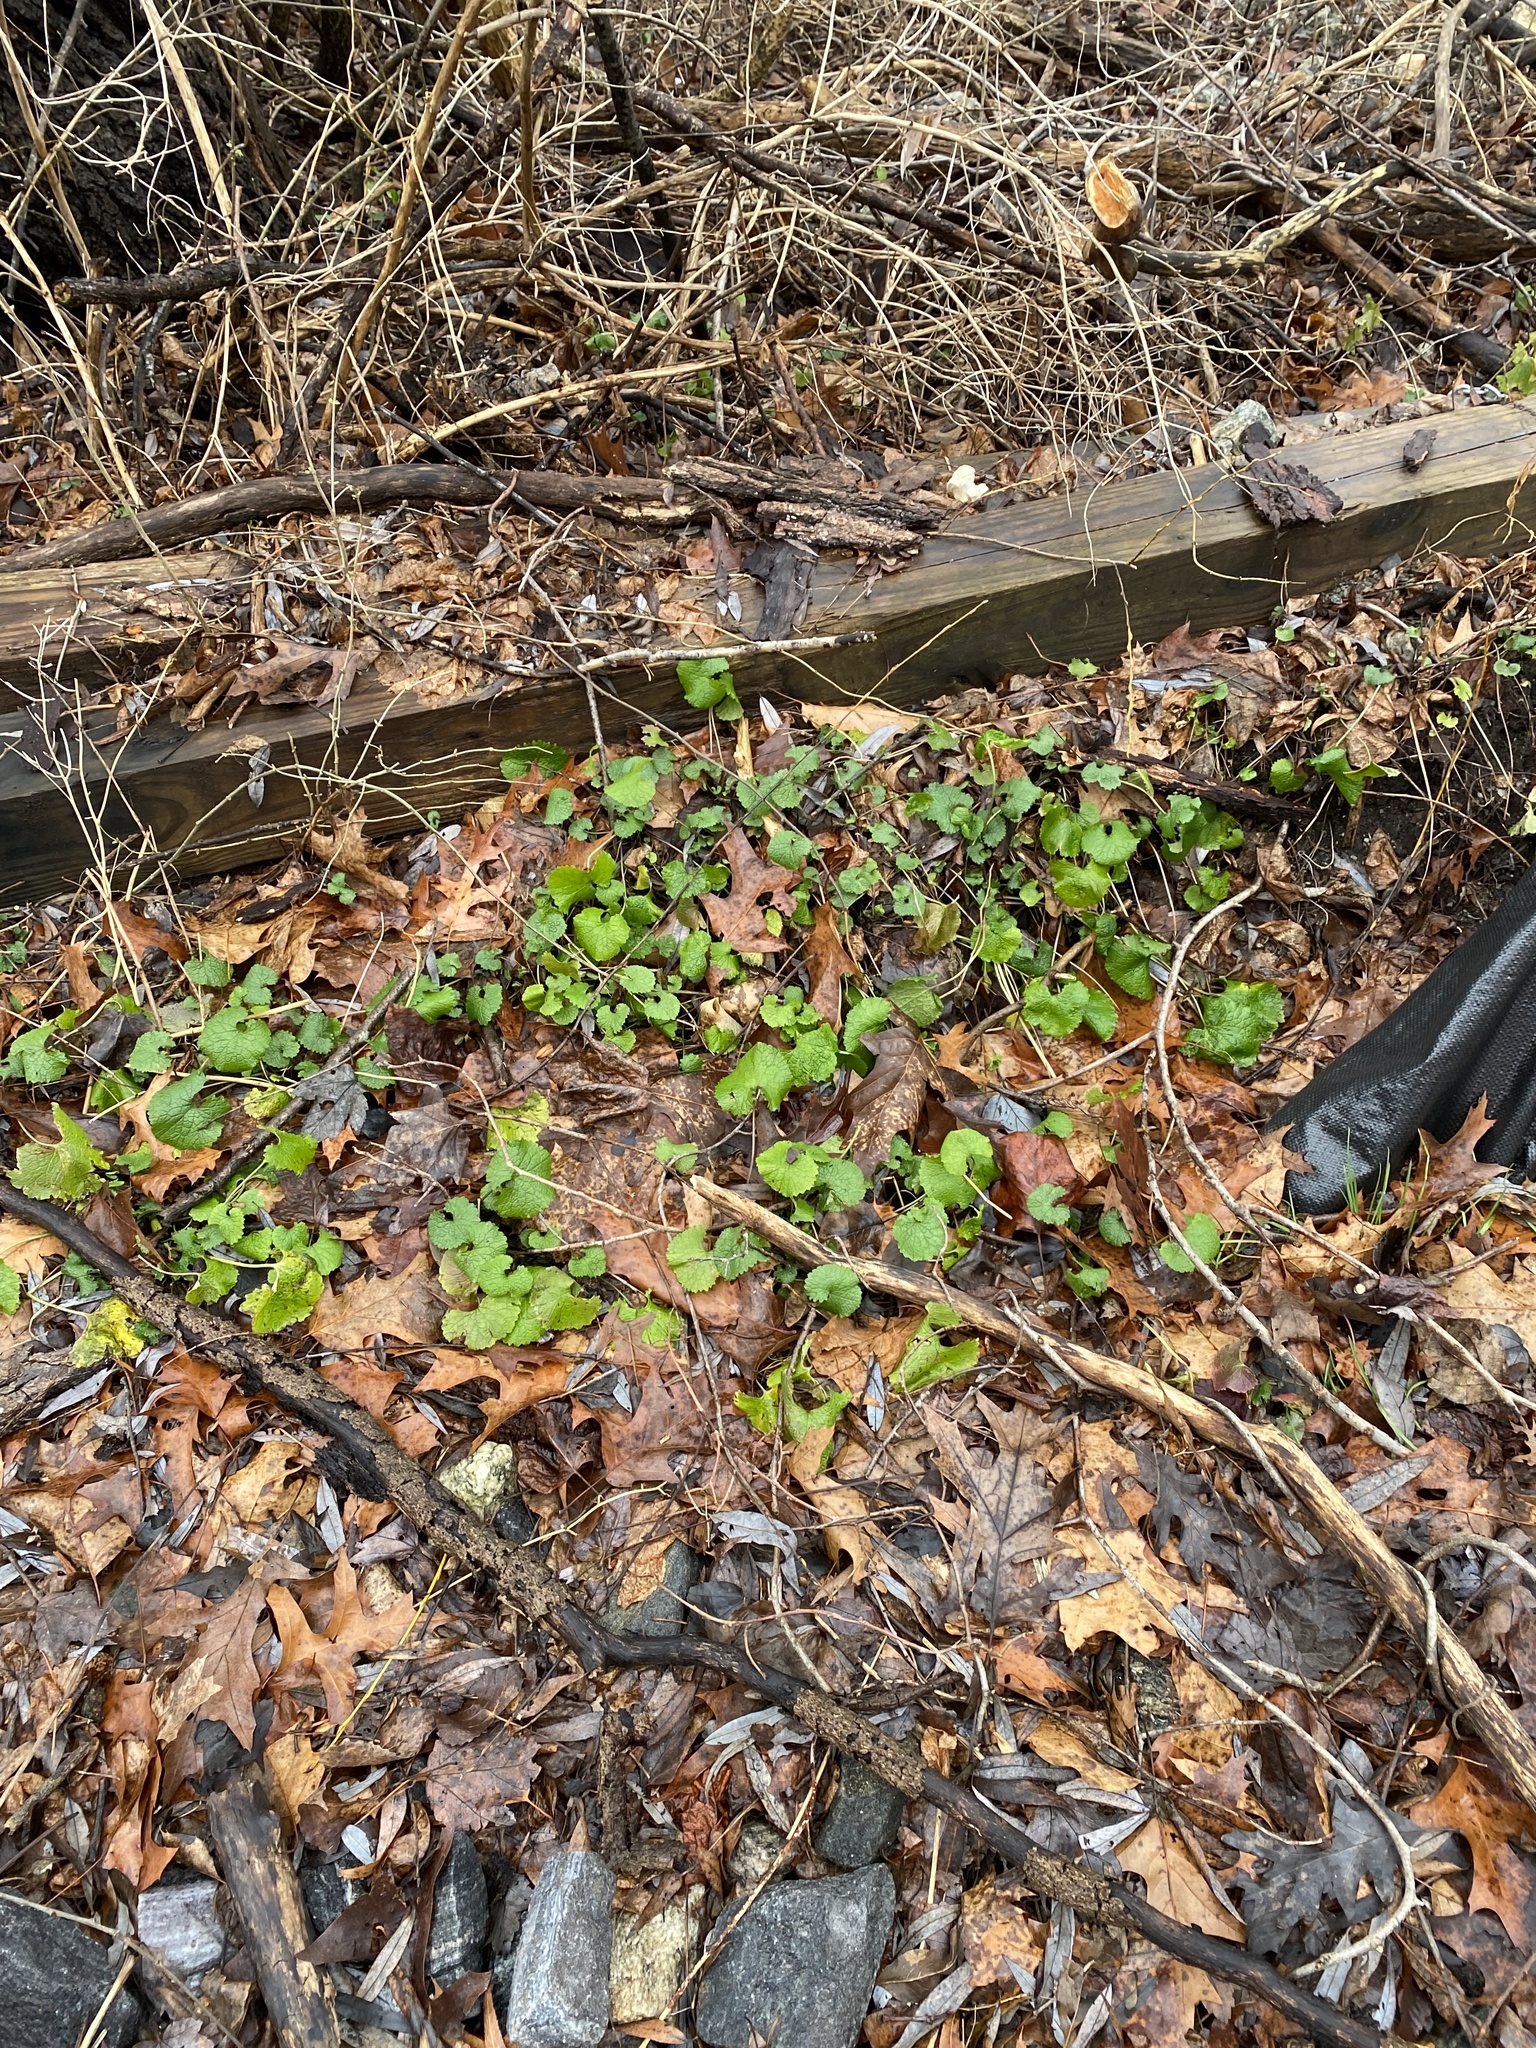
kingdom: Plantae
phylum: Tracheophyta
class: Magnoliopsida
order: Brassicales
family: Brassicaceae
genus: Alliaria
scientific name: Alliaria petiolata
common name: Garlic mustard
